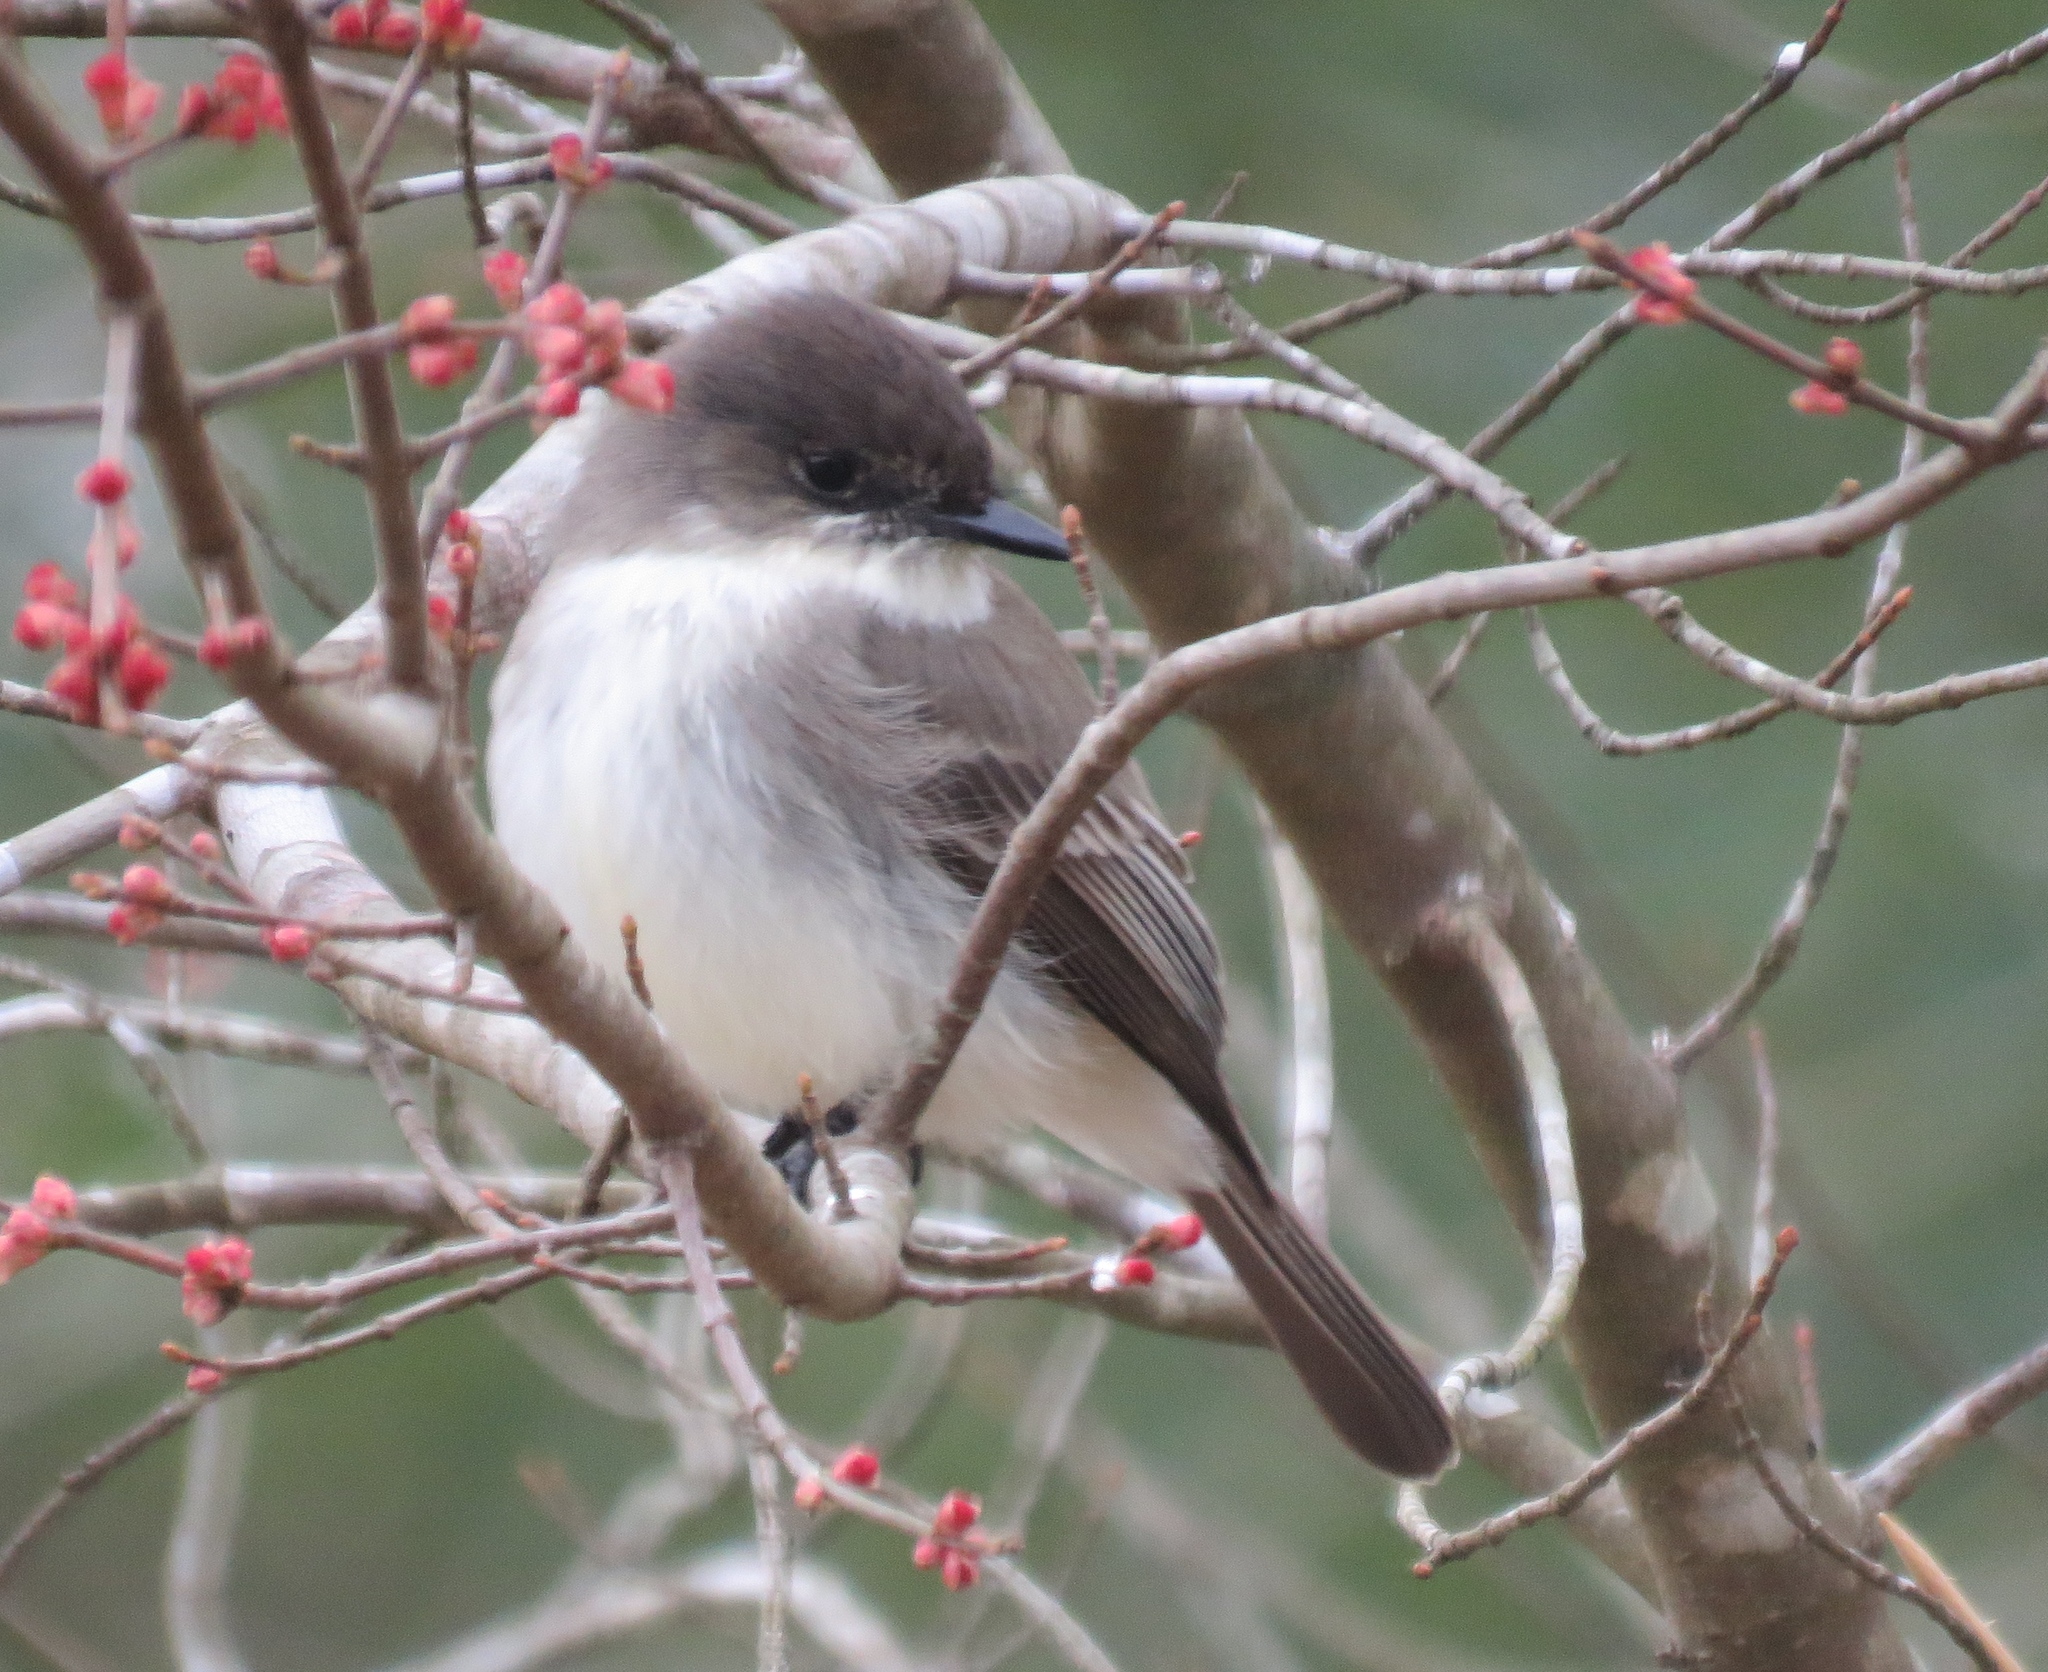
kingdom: Animalia
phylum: Chordata
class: Aves
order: Passeriformes
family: Tyrannidae
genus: Sayornis
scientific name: Sayornis phoebe
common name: Eastern phoebe
